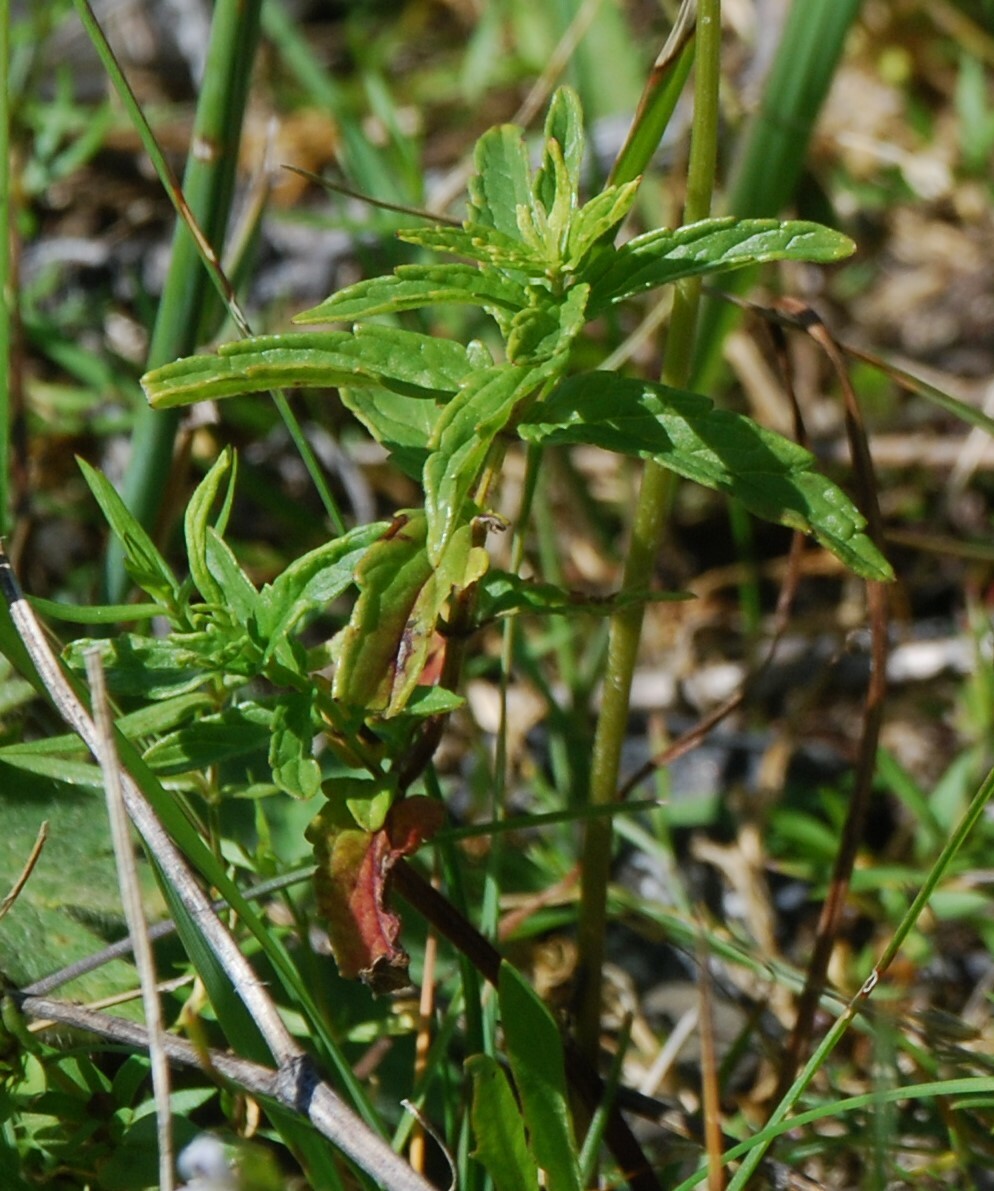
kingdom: Plantae
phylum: Tracheophyta
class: Magnoliopsida
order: Lamiales
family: Lamiaceae
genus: Scutellaria
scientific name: Scutellaria scordiifolia
